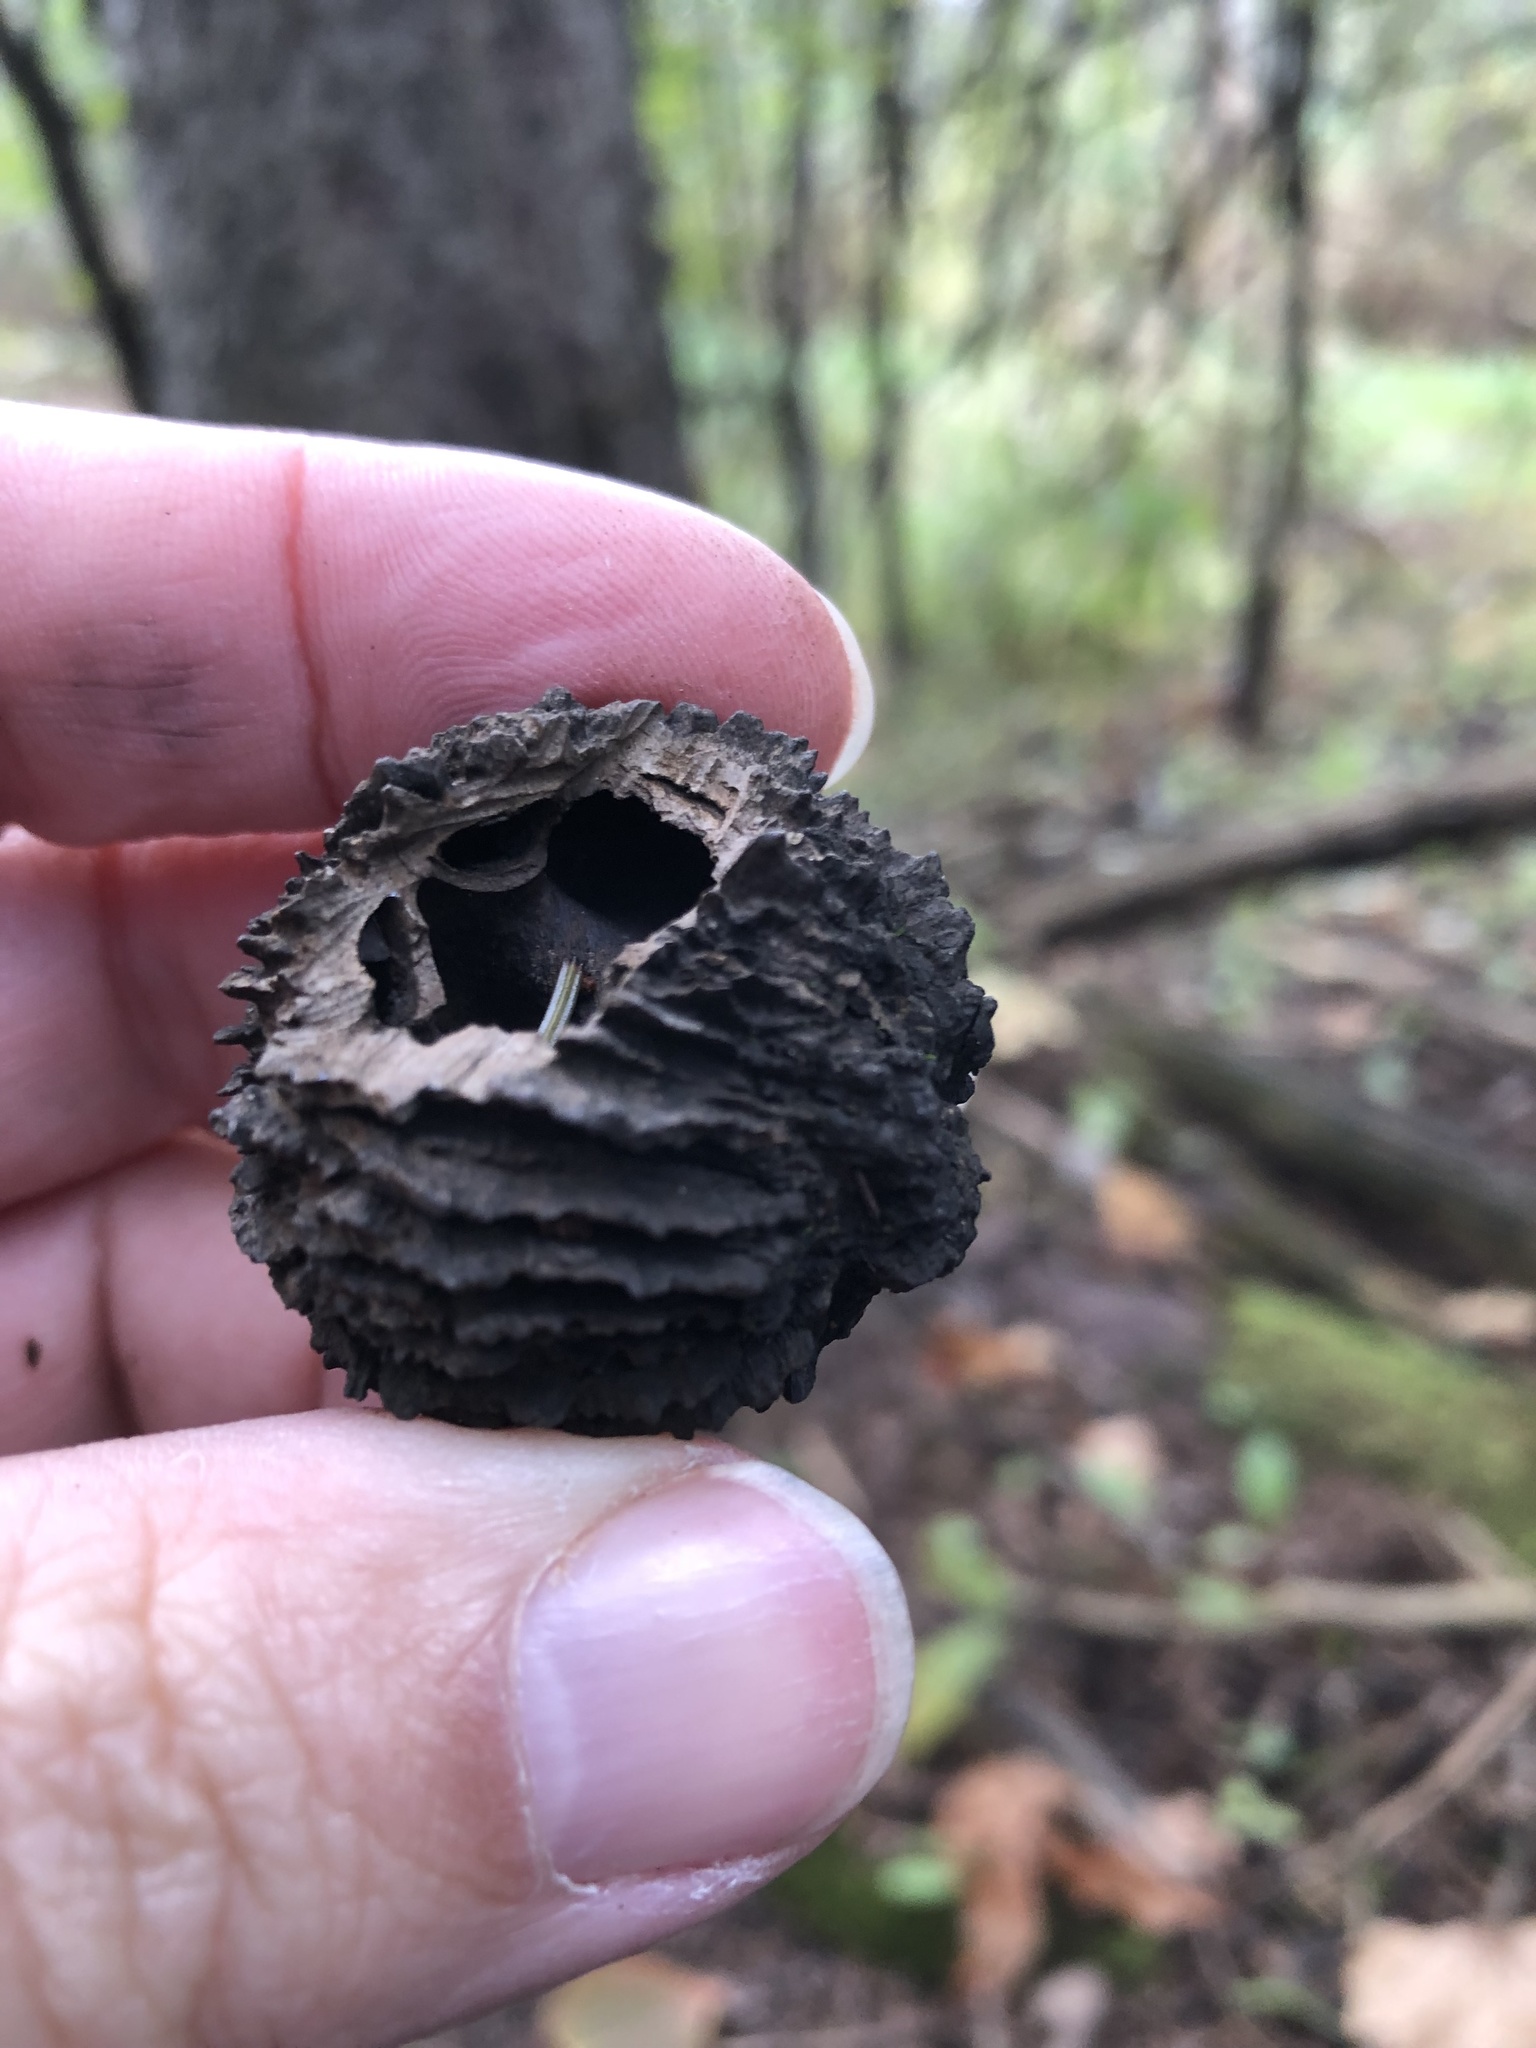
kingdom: Plantae
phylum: Tracheophyta
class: Magnoliopsida
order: Fagales
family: Juglandaceae
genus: Juglans
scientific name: Juglans nigra
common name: Black walnut
